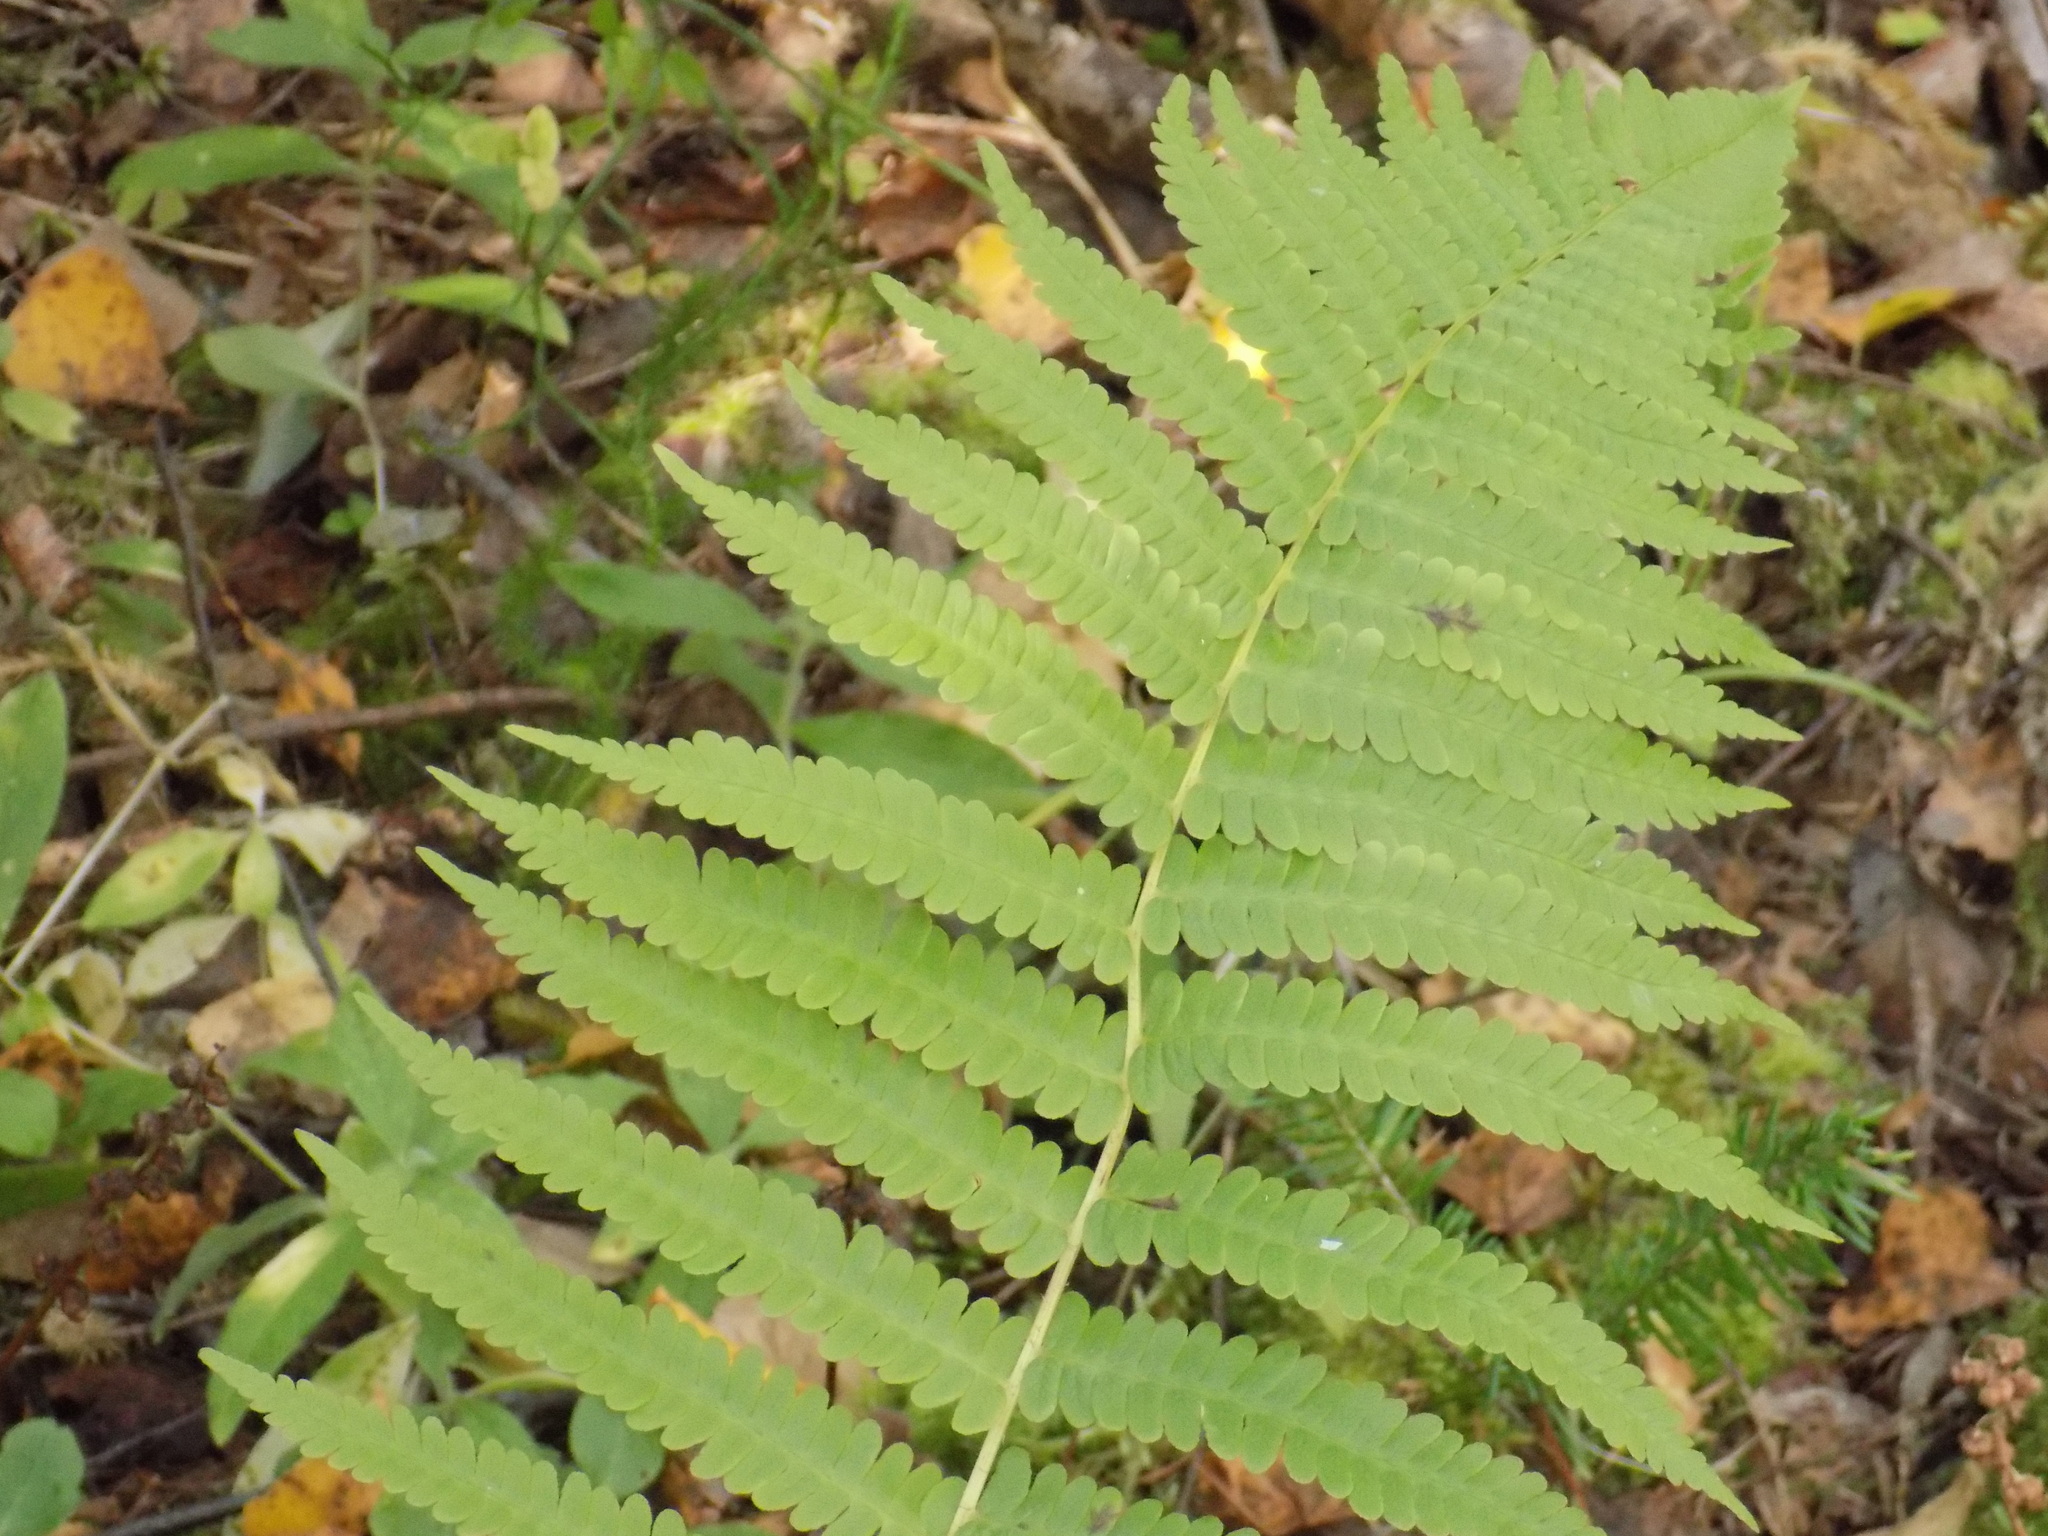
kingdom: Plantae
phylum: Tracheophyta
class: Polypodiopsida
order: Polypodiales
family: Onocleaceae
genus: Matteuccia
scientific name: Matteuccia struthiopteris
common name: Ostrich fern
